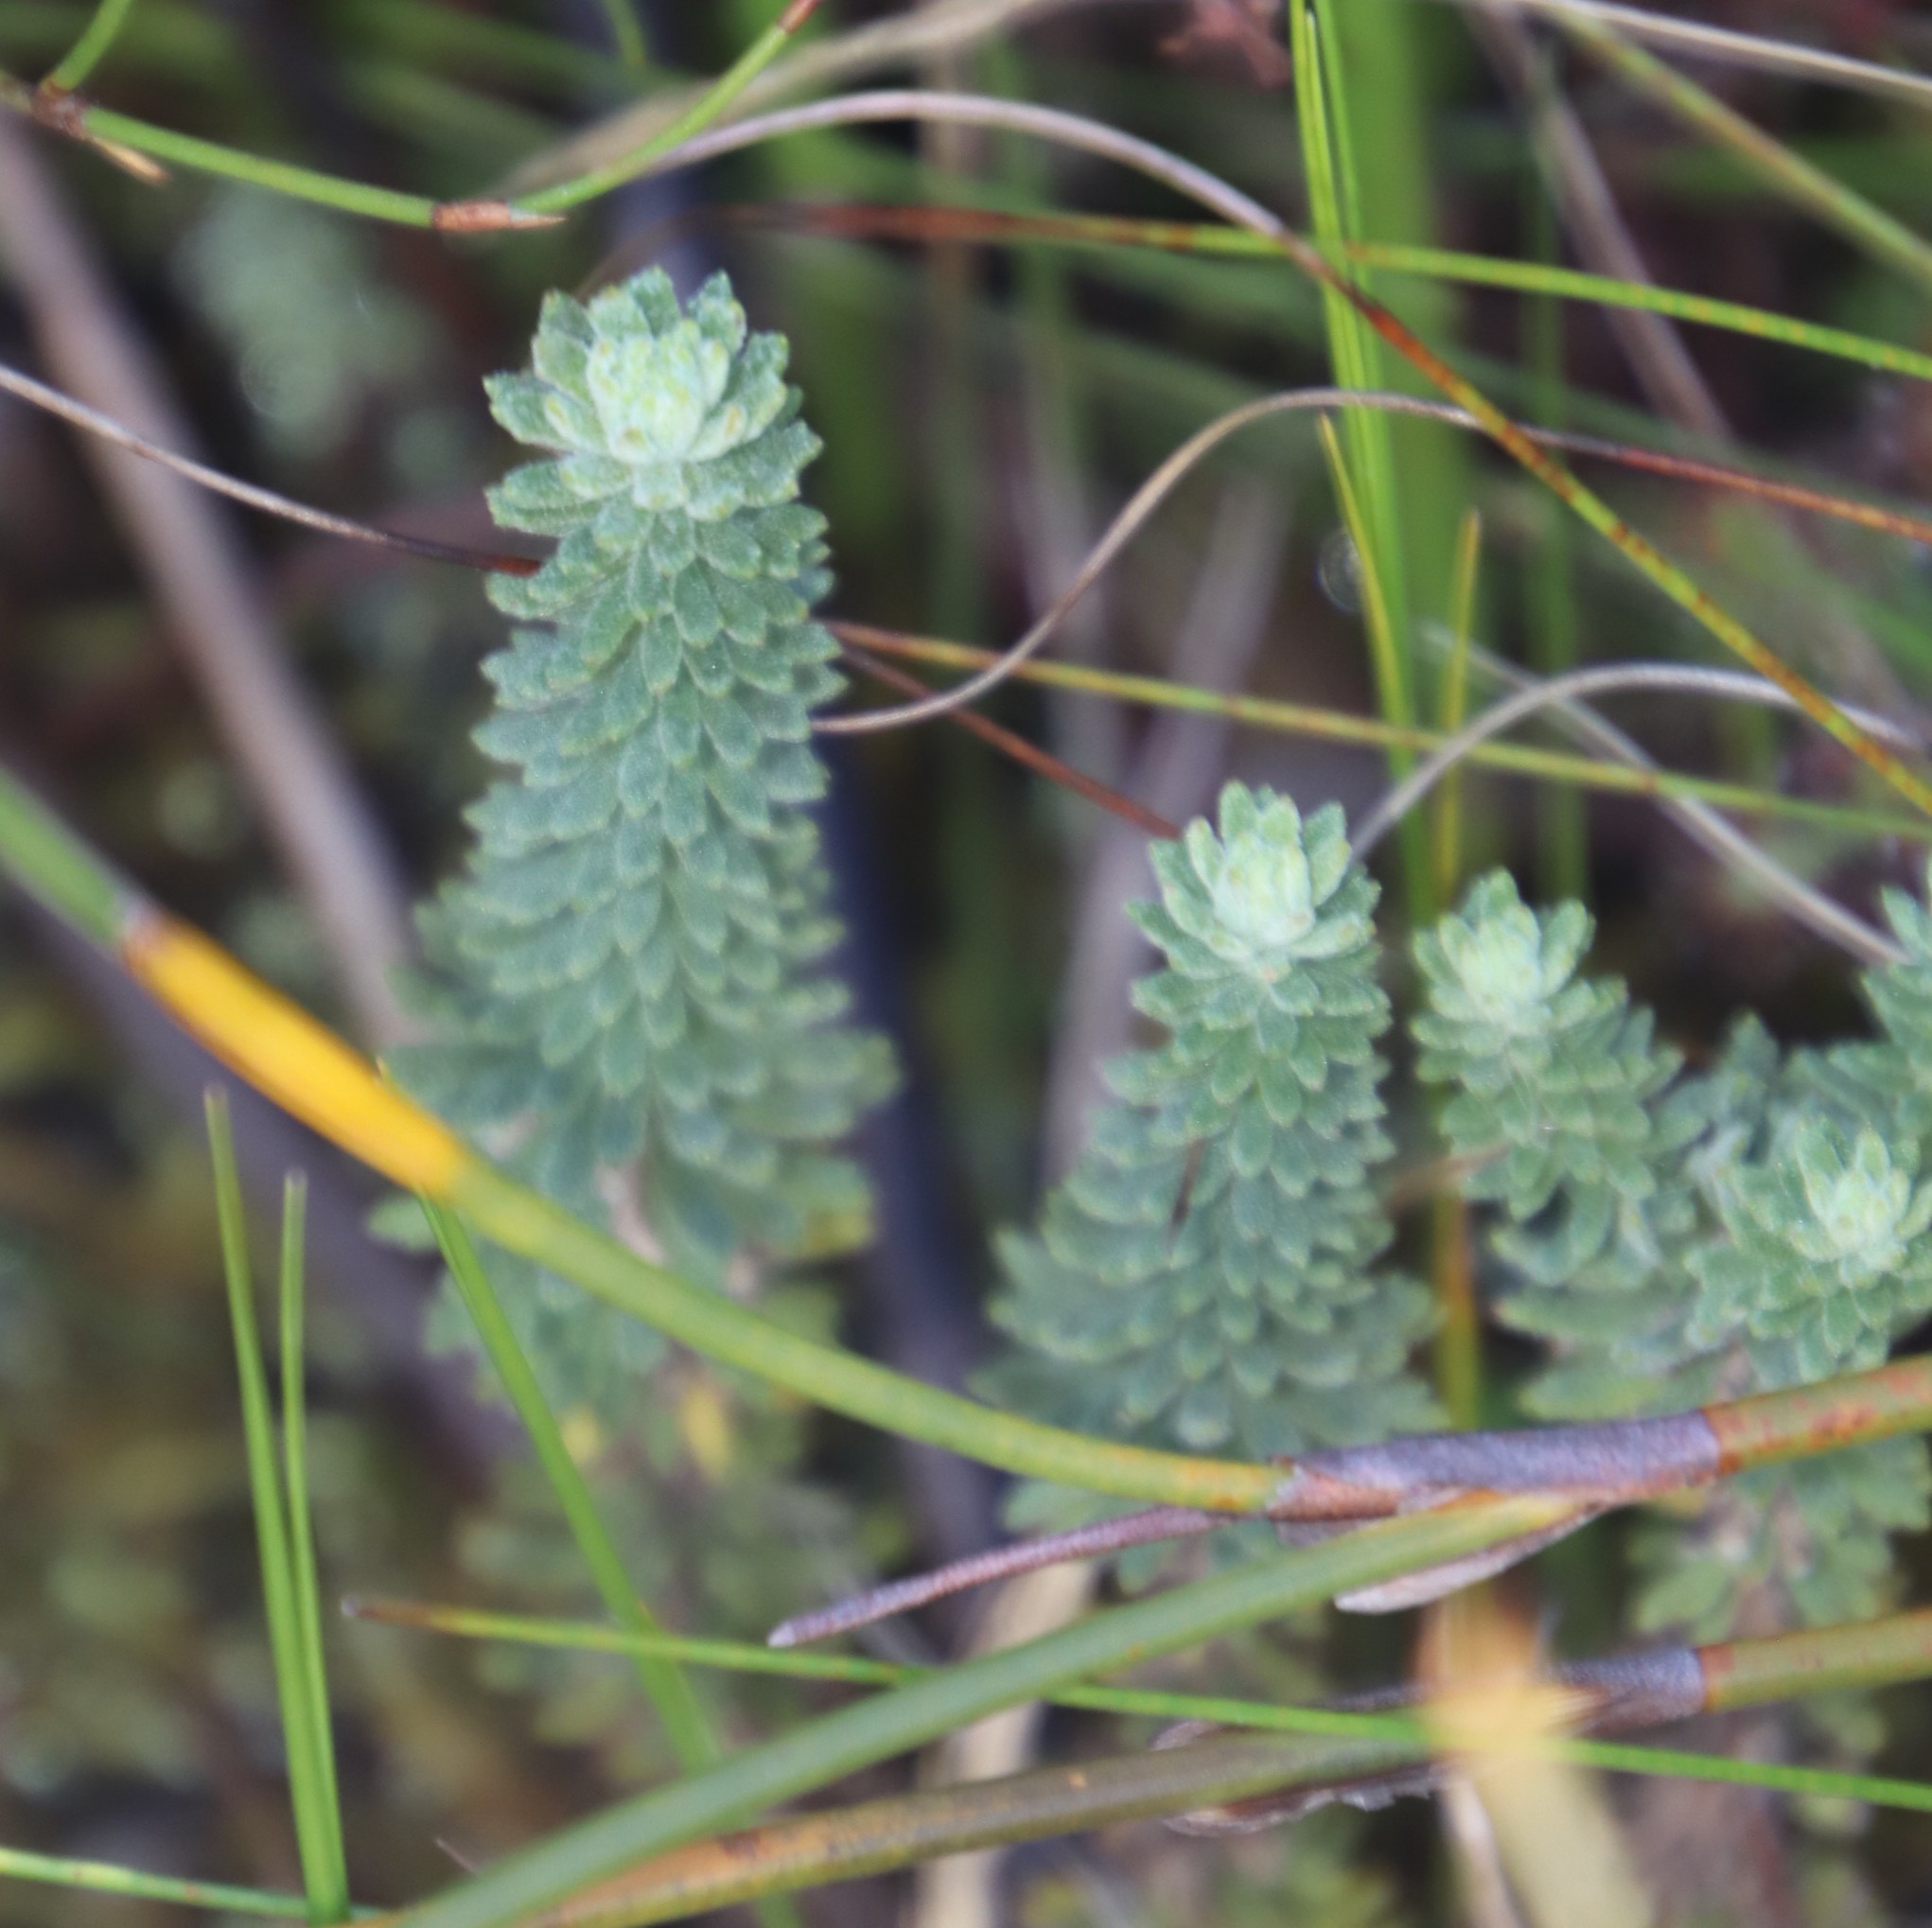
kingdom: Plantae
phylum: Tracheophyta
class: Magnoliopsida
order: Asterales
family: Asteraceae
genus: Osmitopsis
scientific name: Osmitopsis afra
